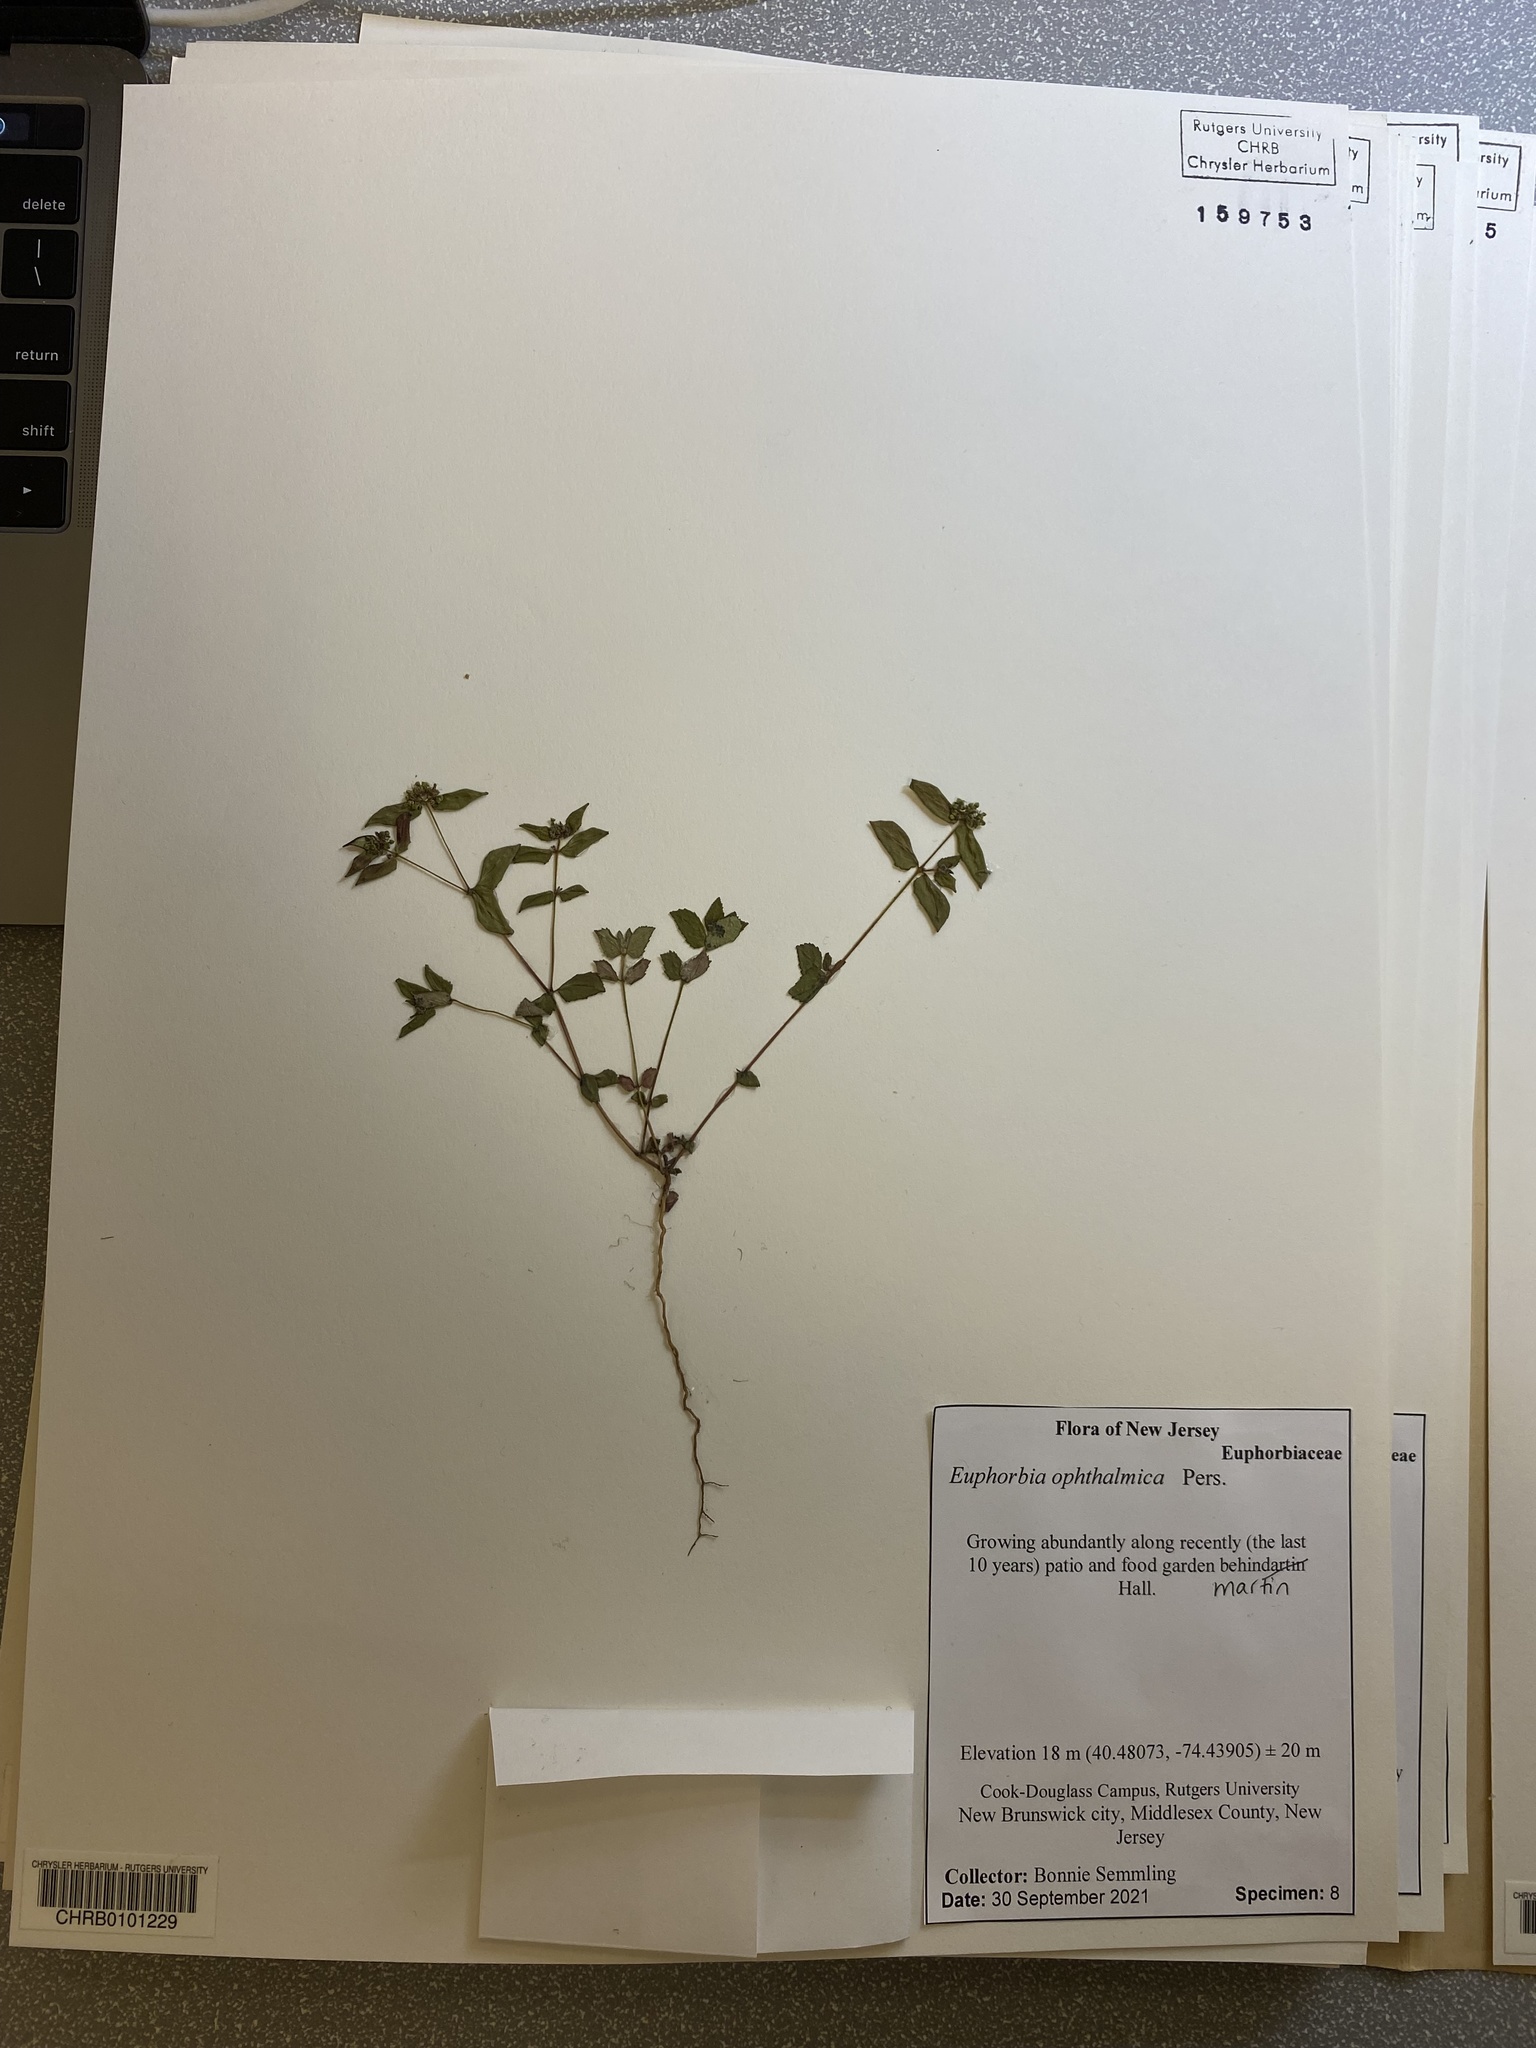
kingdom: Plantae
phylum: Tracheophyta
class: Magnoliopsida
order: Malpighiales
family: Euphorbiaceae
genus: Euphorbia
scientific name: Euphorbia ophthalmica
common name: Florida hammock sandmat
